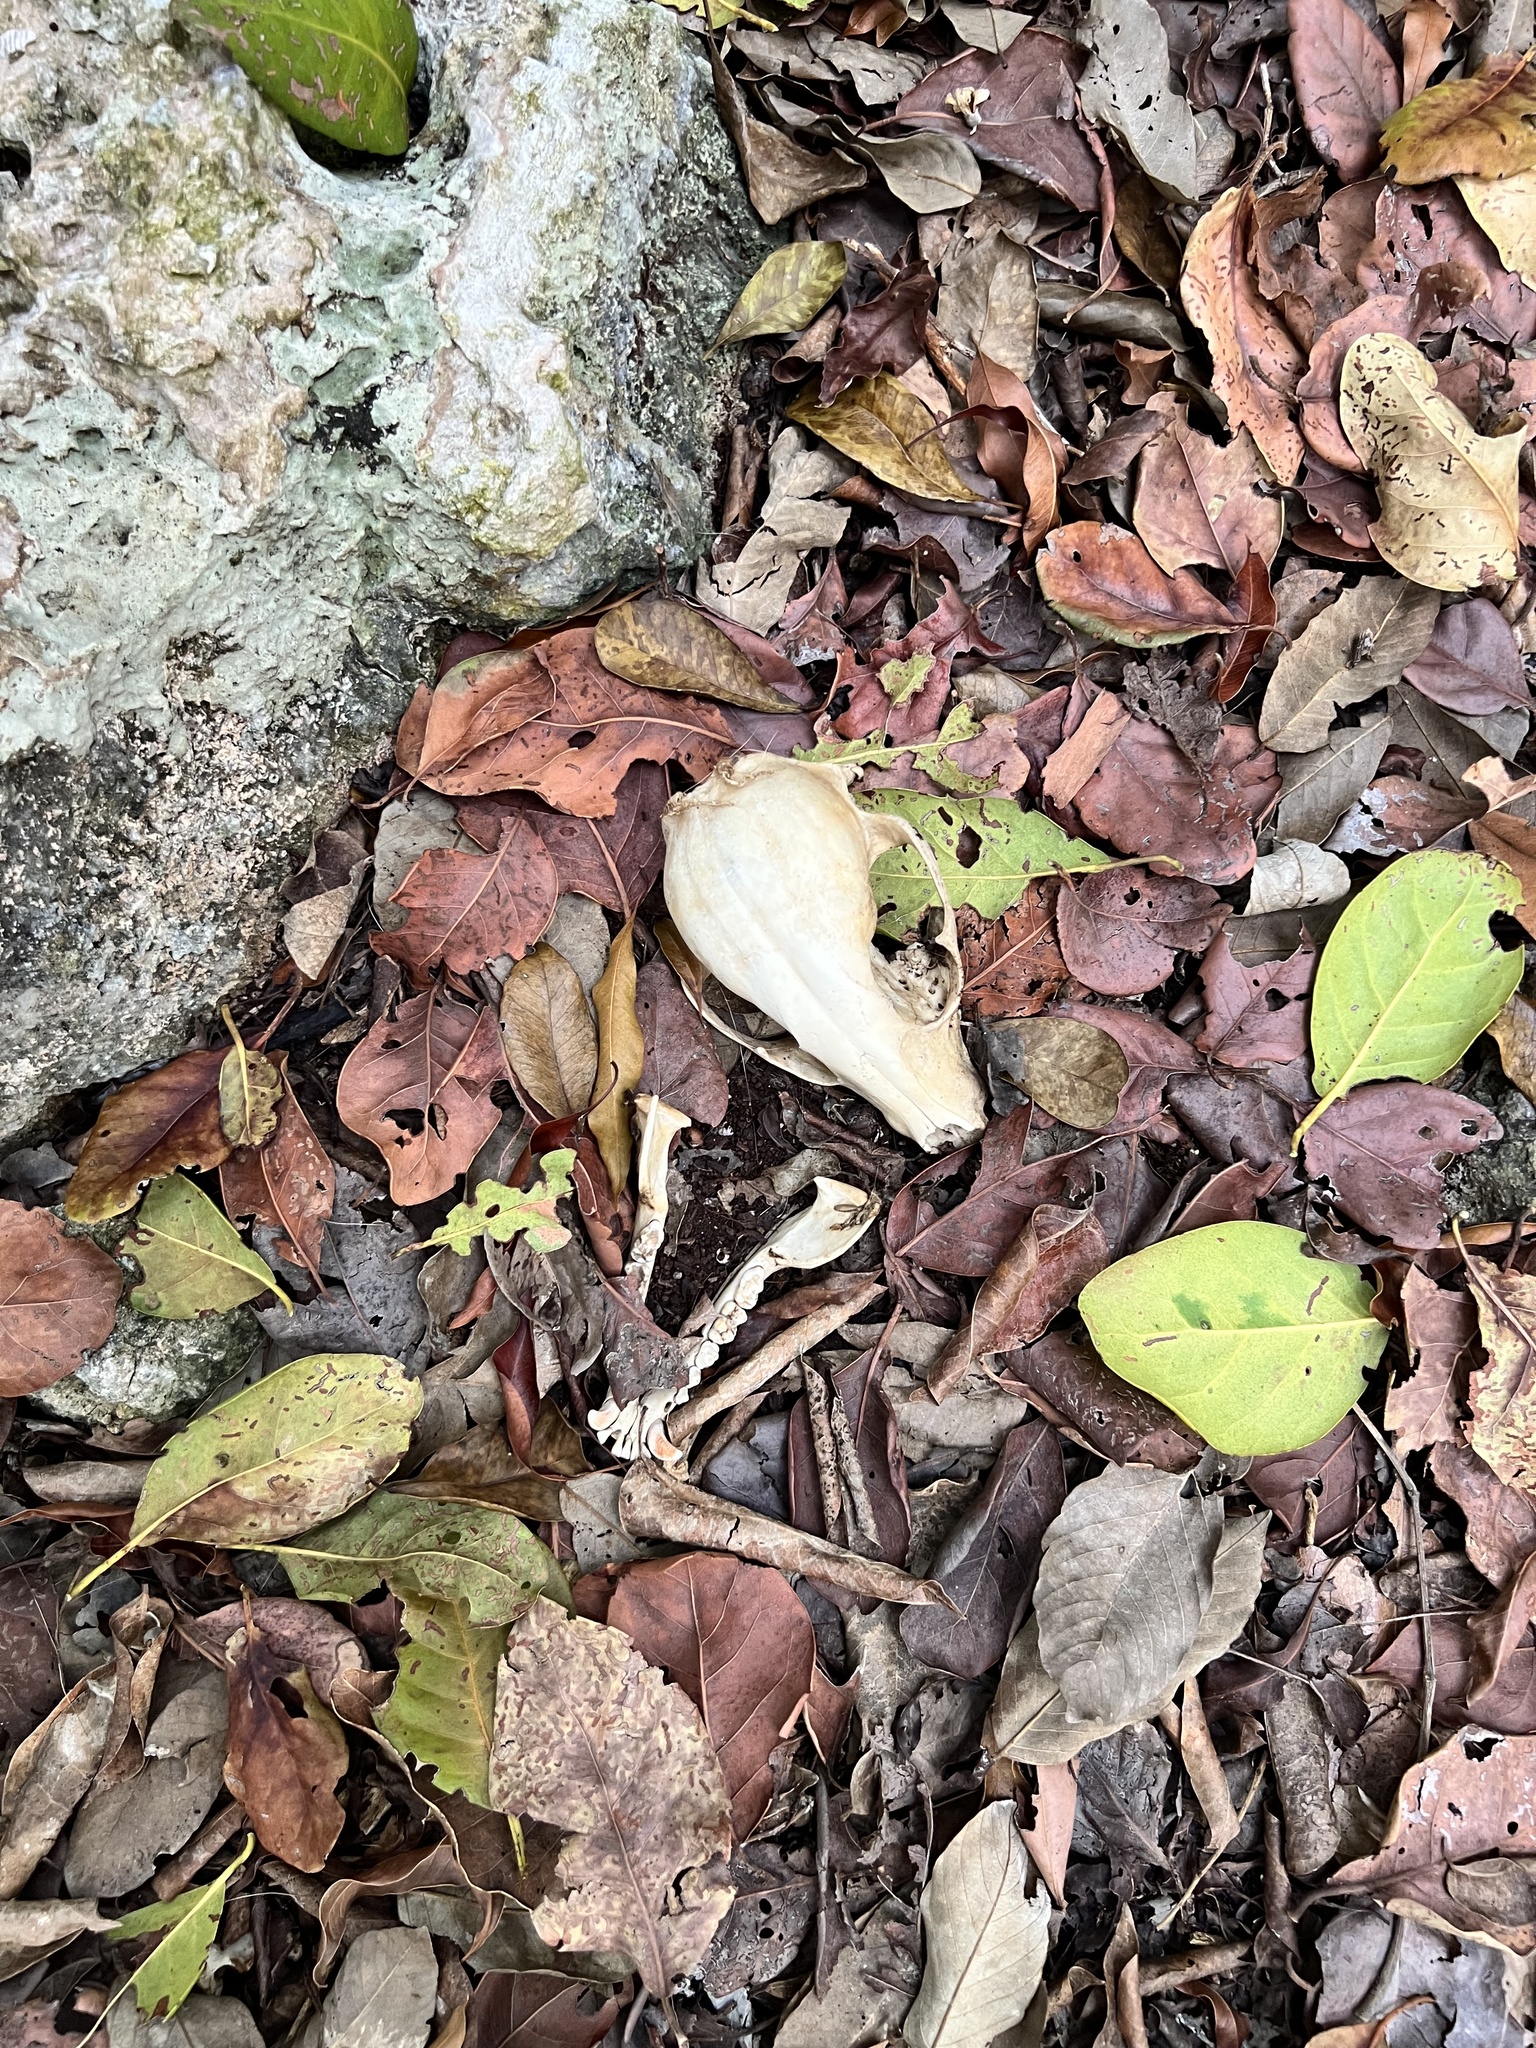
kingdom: Animalia
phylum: Chordata
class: Mammalia
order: Carnivora
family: Procyonidae
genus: Procyon
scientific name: Procyon lotor
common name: Raccoon
